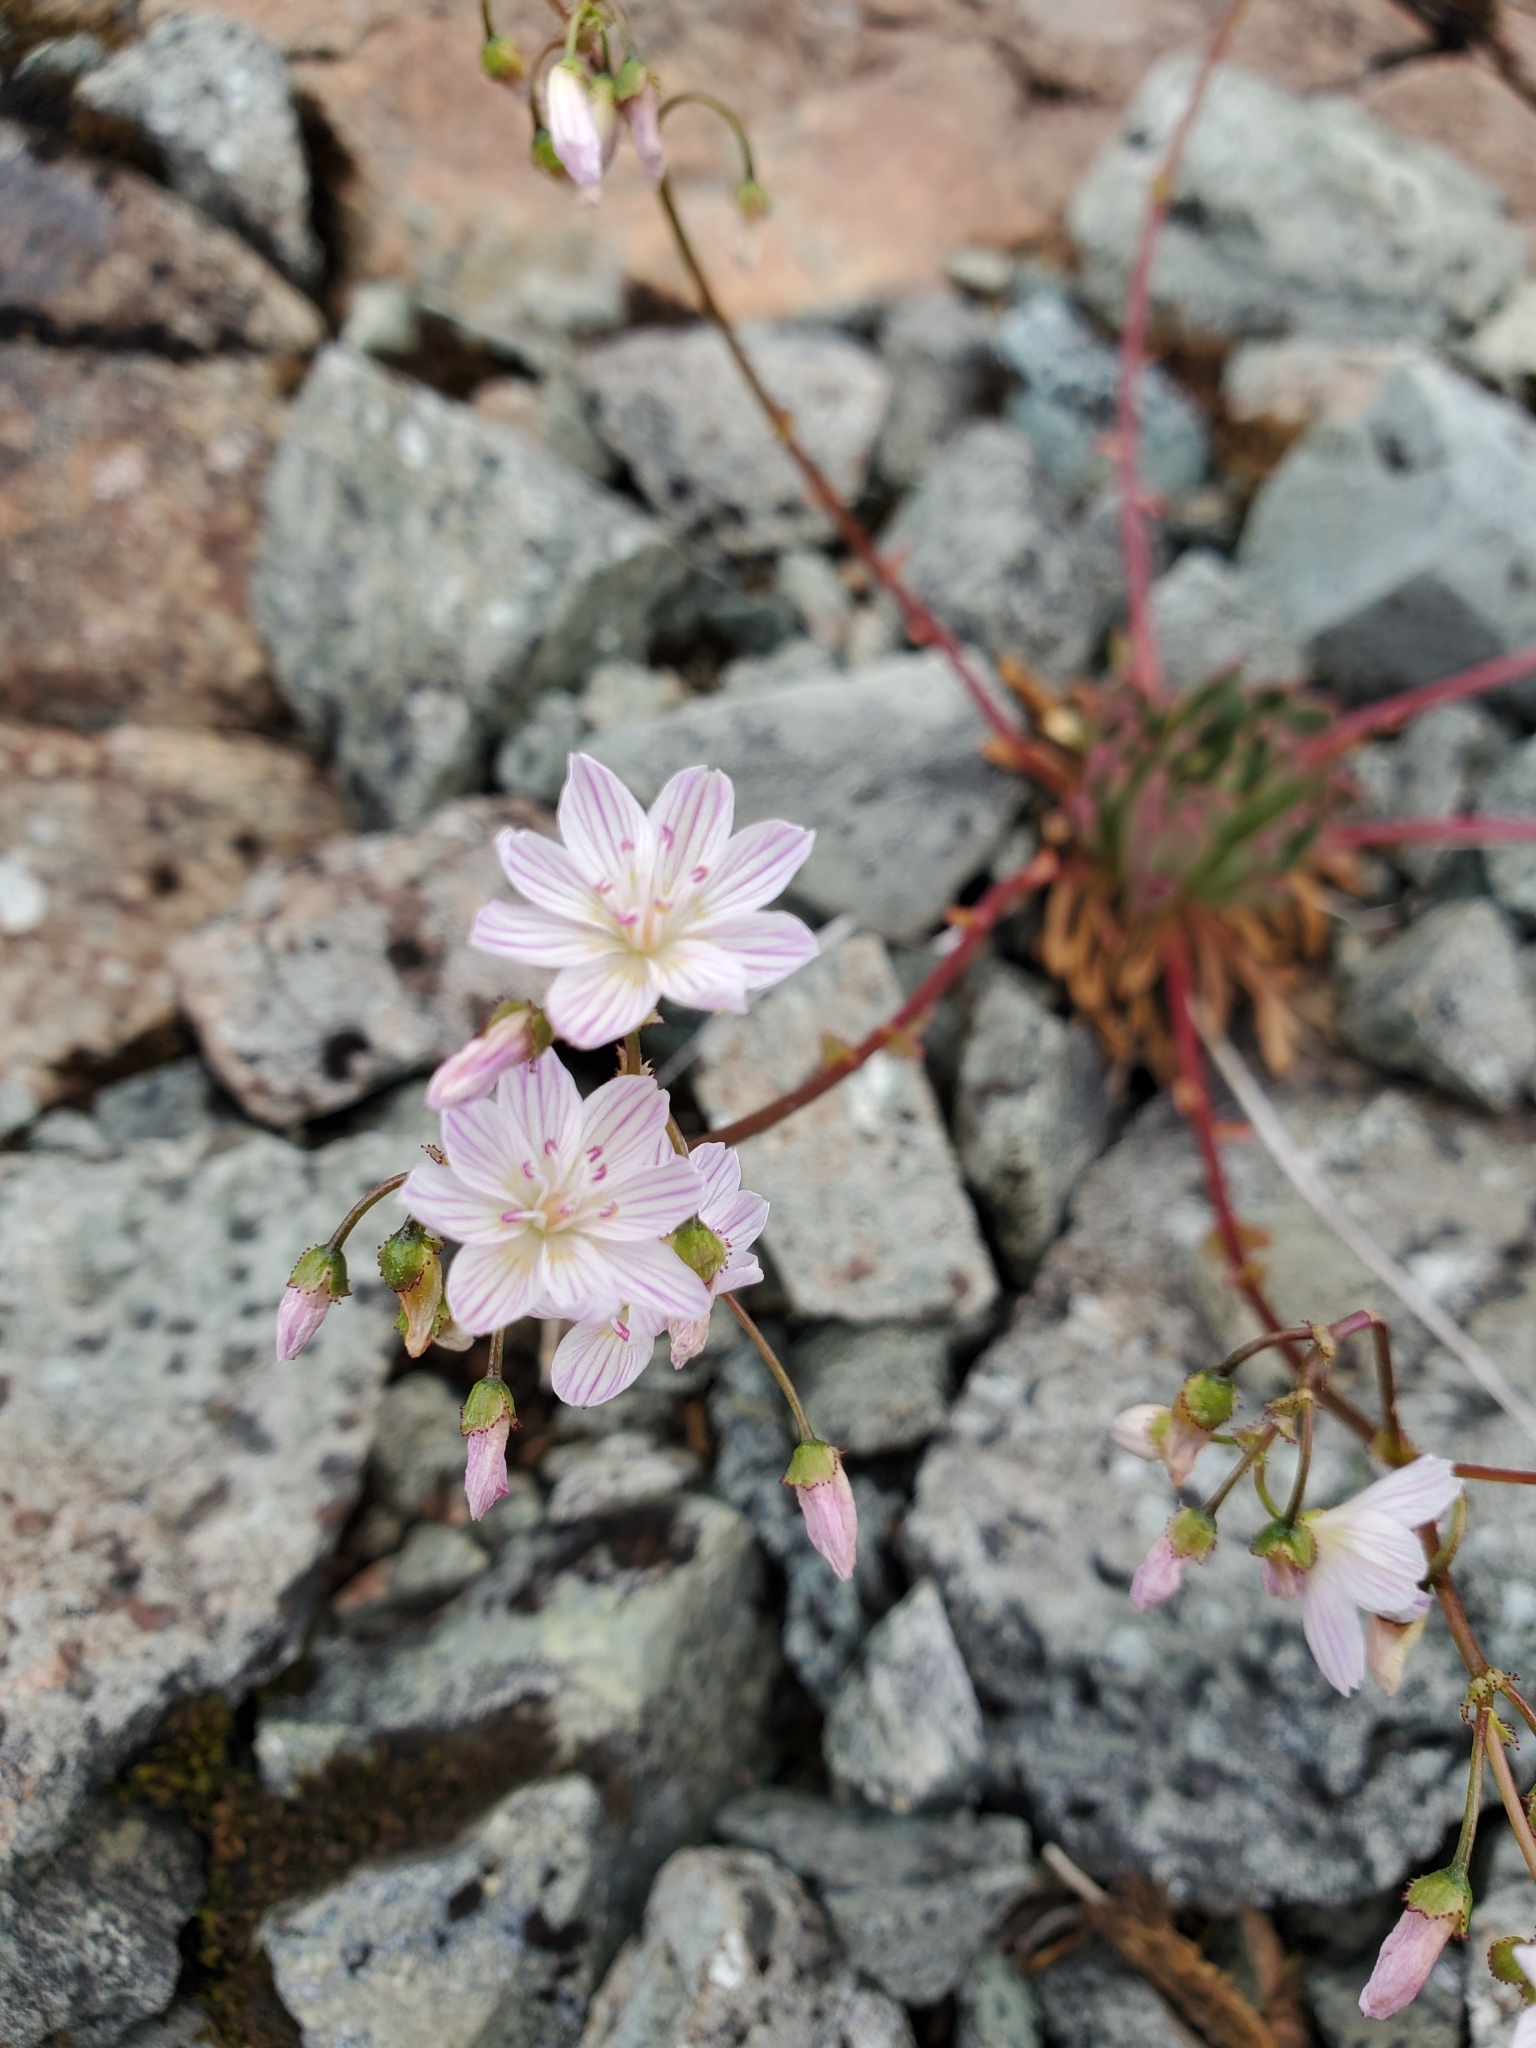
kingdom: Plantae
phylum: Tracheophyta
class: Magnoliopsida
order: Caryophyllales
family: Montiaceae
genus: Lewisia
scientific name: Lewisia columbiana
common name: Columbia lewisia
